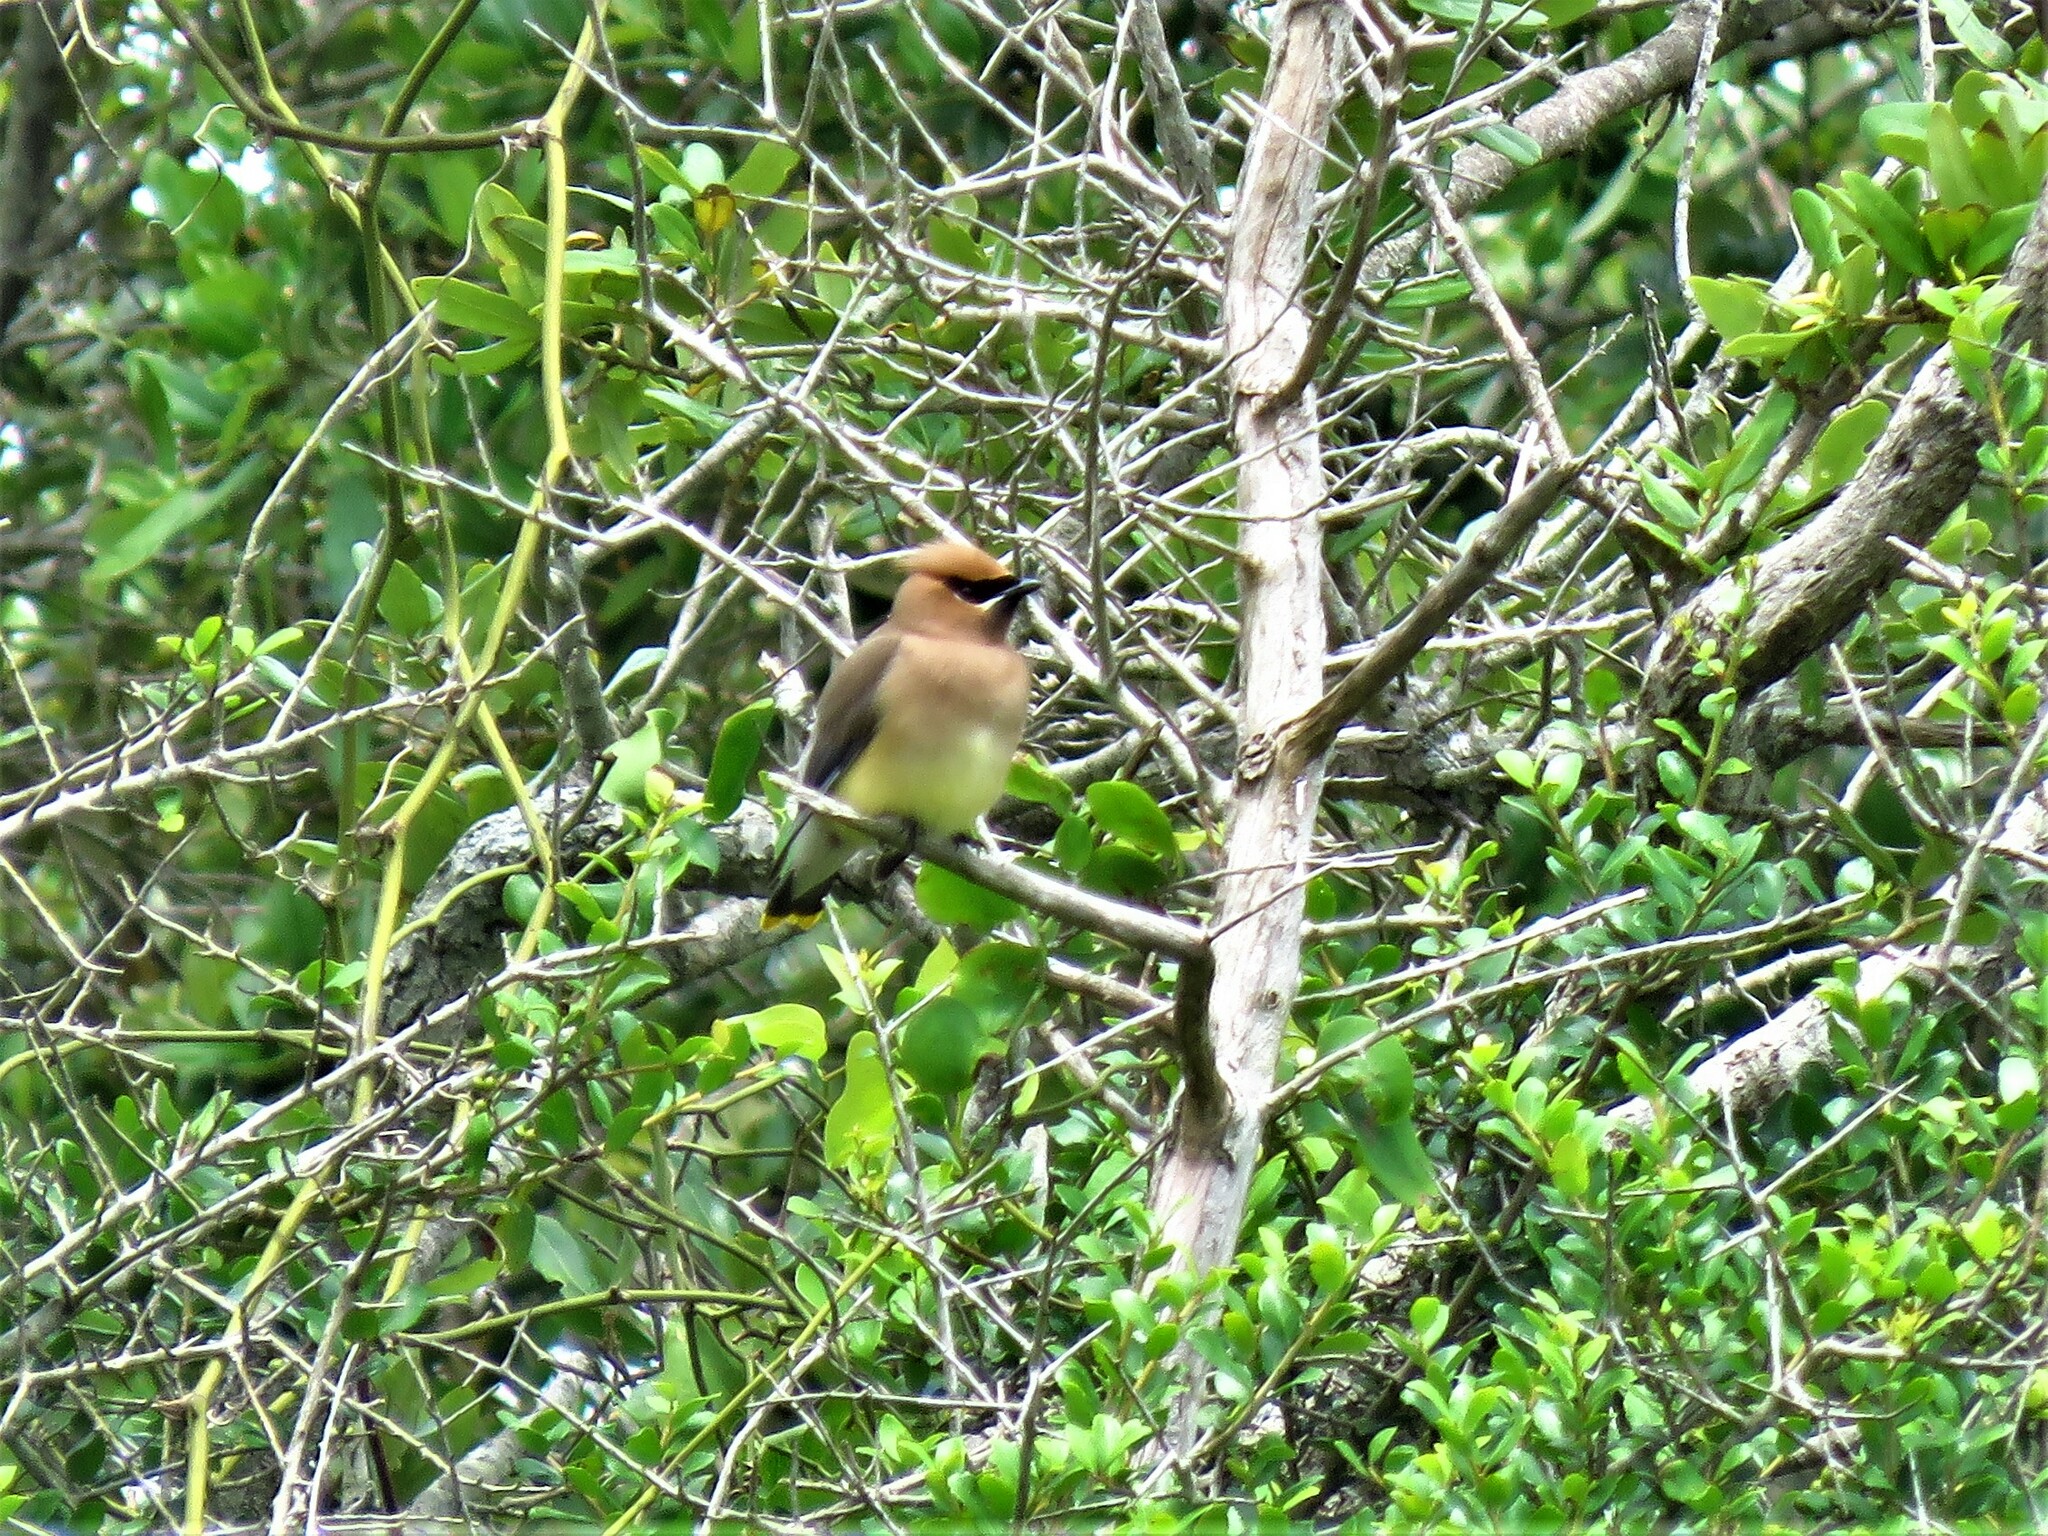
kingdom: Animalia
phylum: Chordata
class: Aves
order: Passeriformes
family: Bombycillidae
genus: Bombycilla
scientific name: Bombycilla cedrorum
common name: Cedar waxwing
